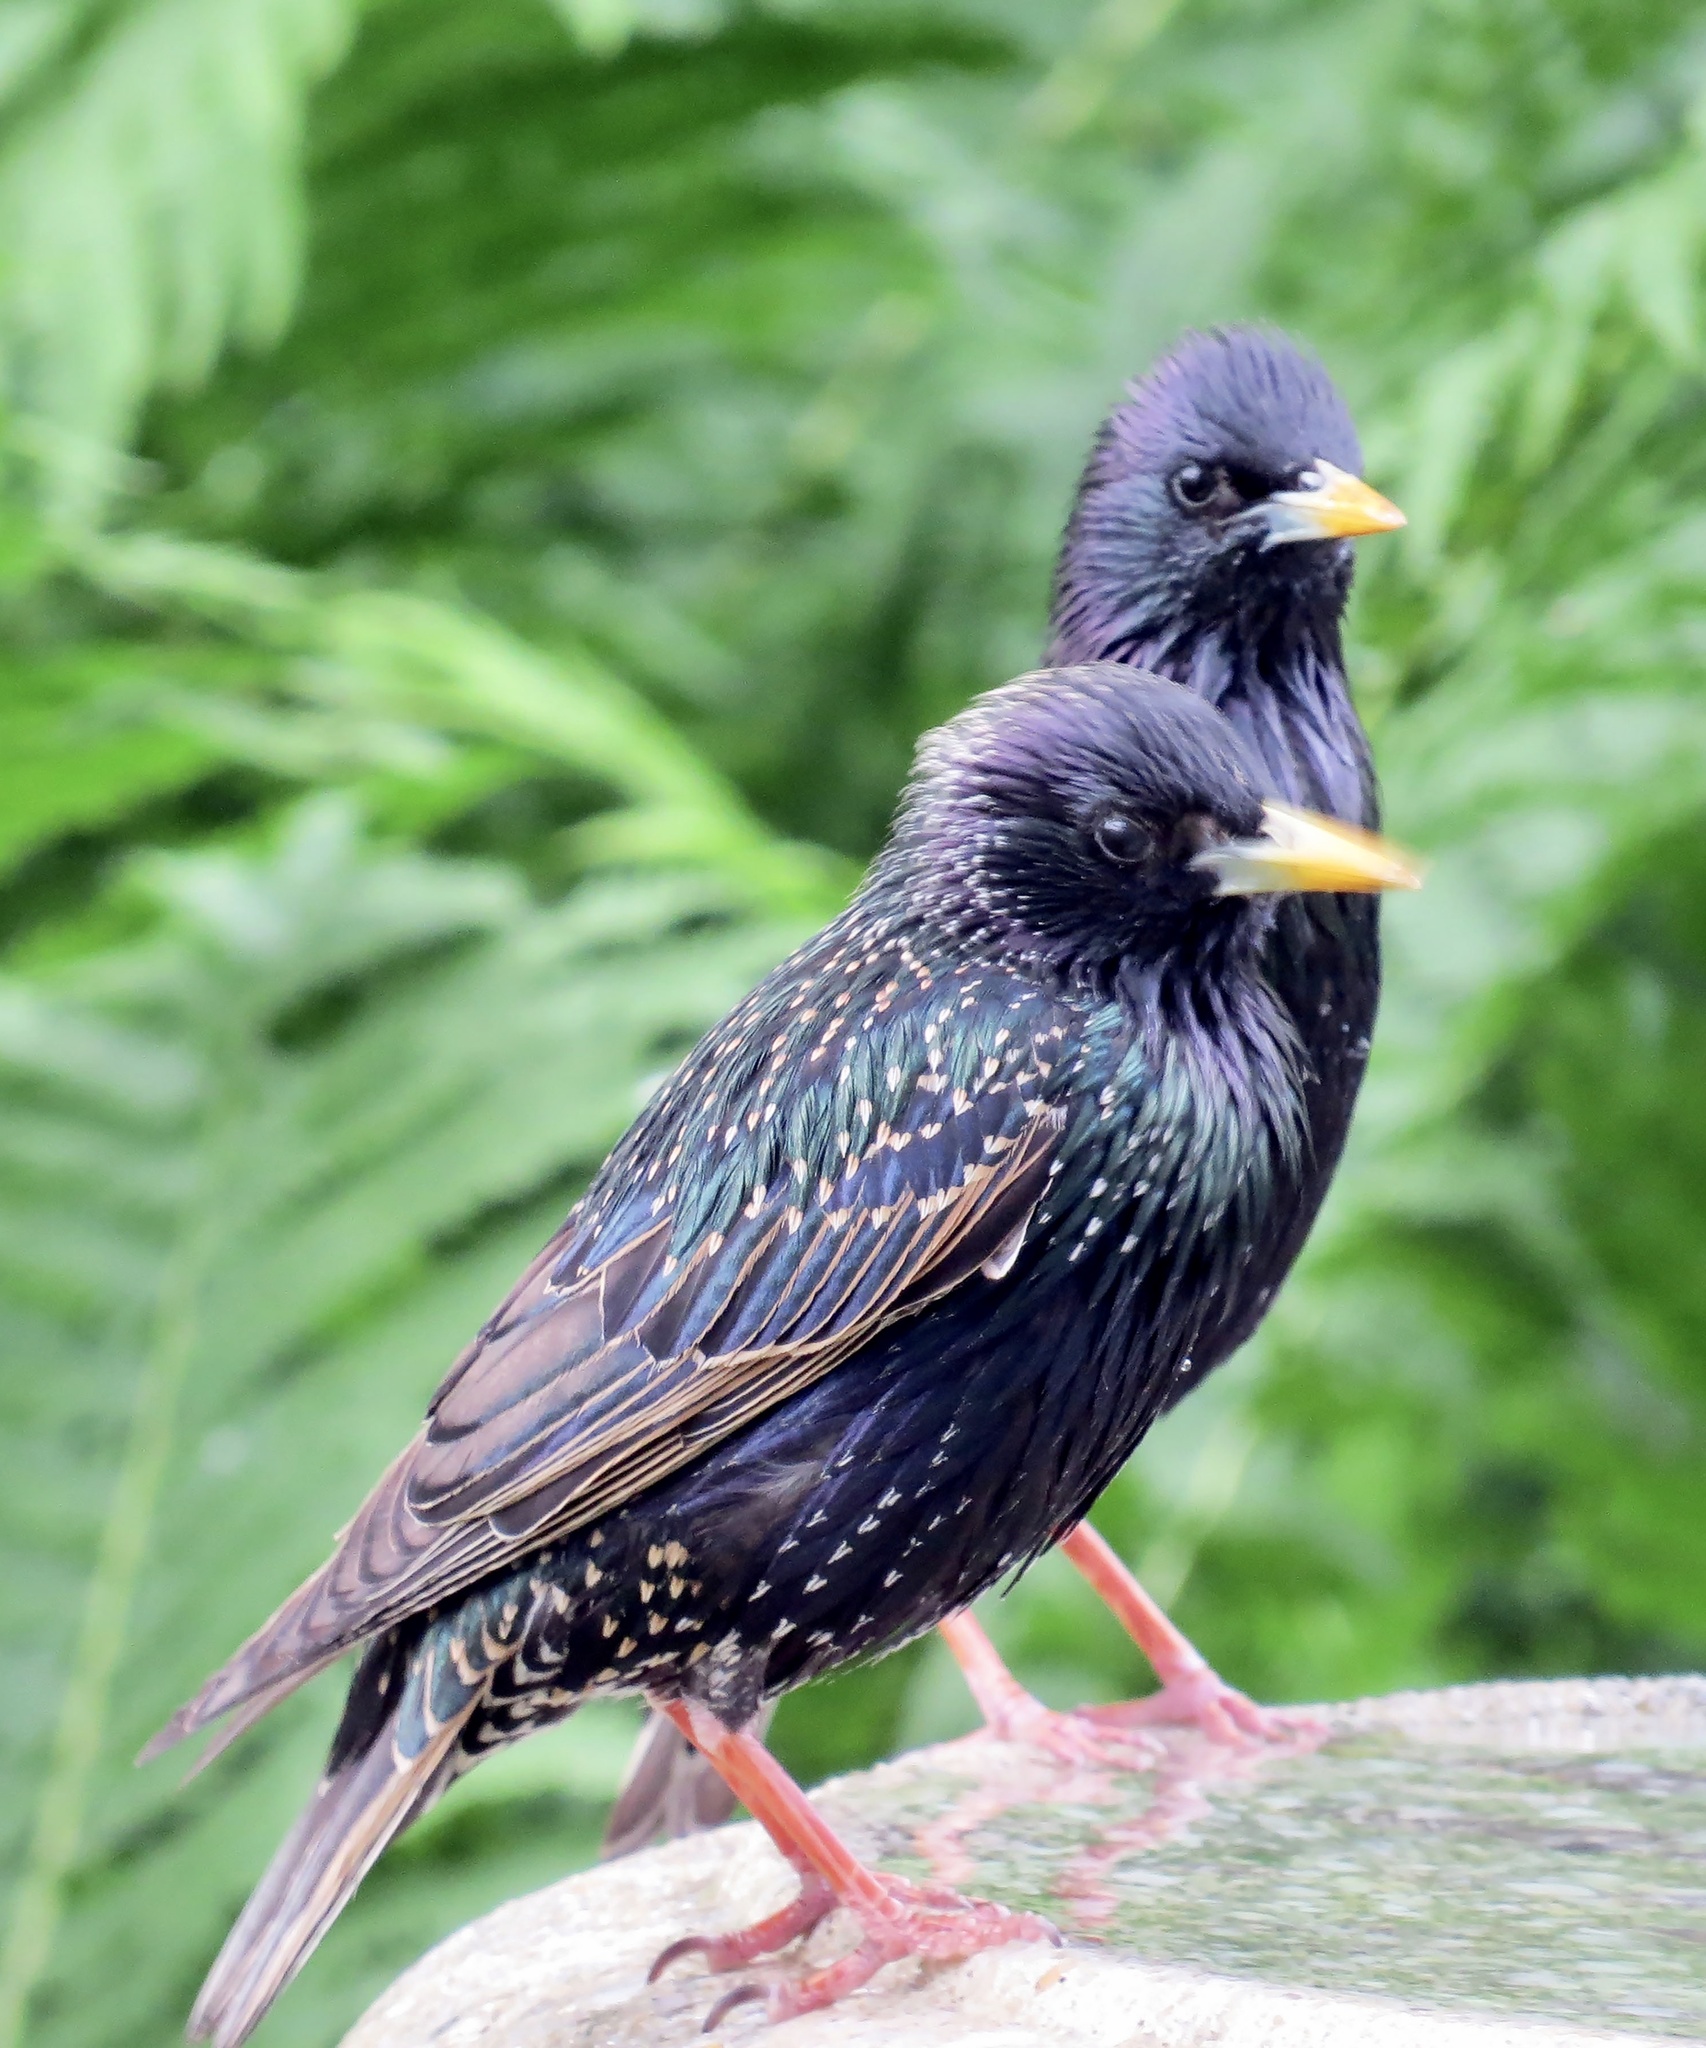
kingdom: Animalia
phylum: Chordata
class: Aves
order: Passeriformes
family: Sturnidae
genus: Sturnus
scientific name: Sturnus vulgaris
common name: Common starling
